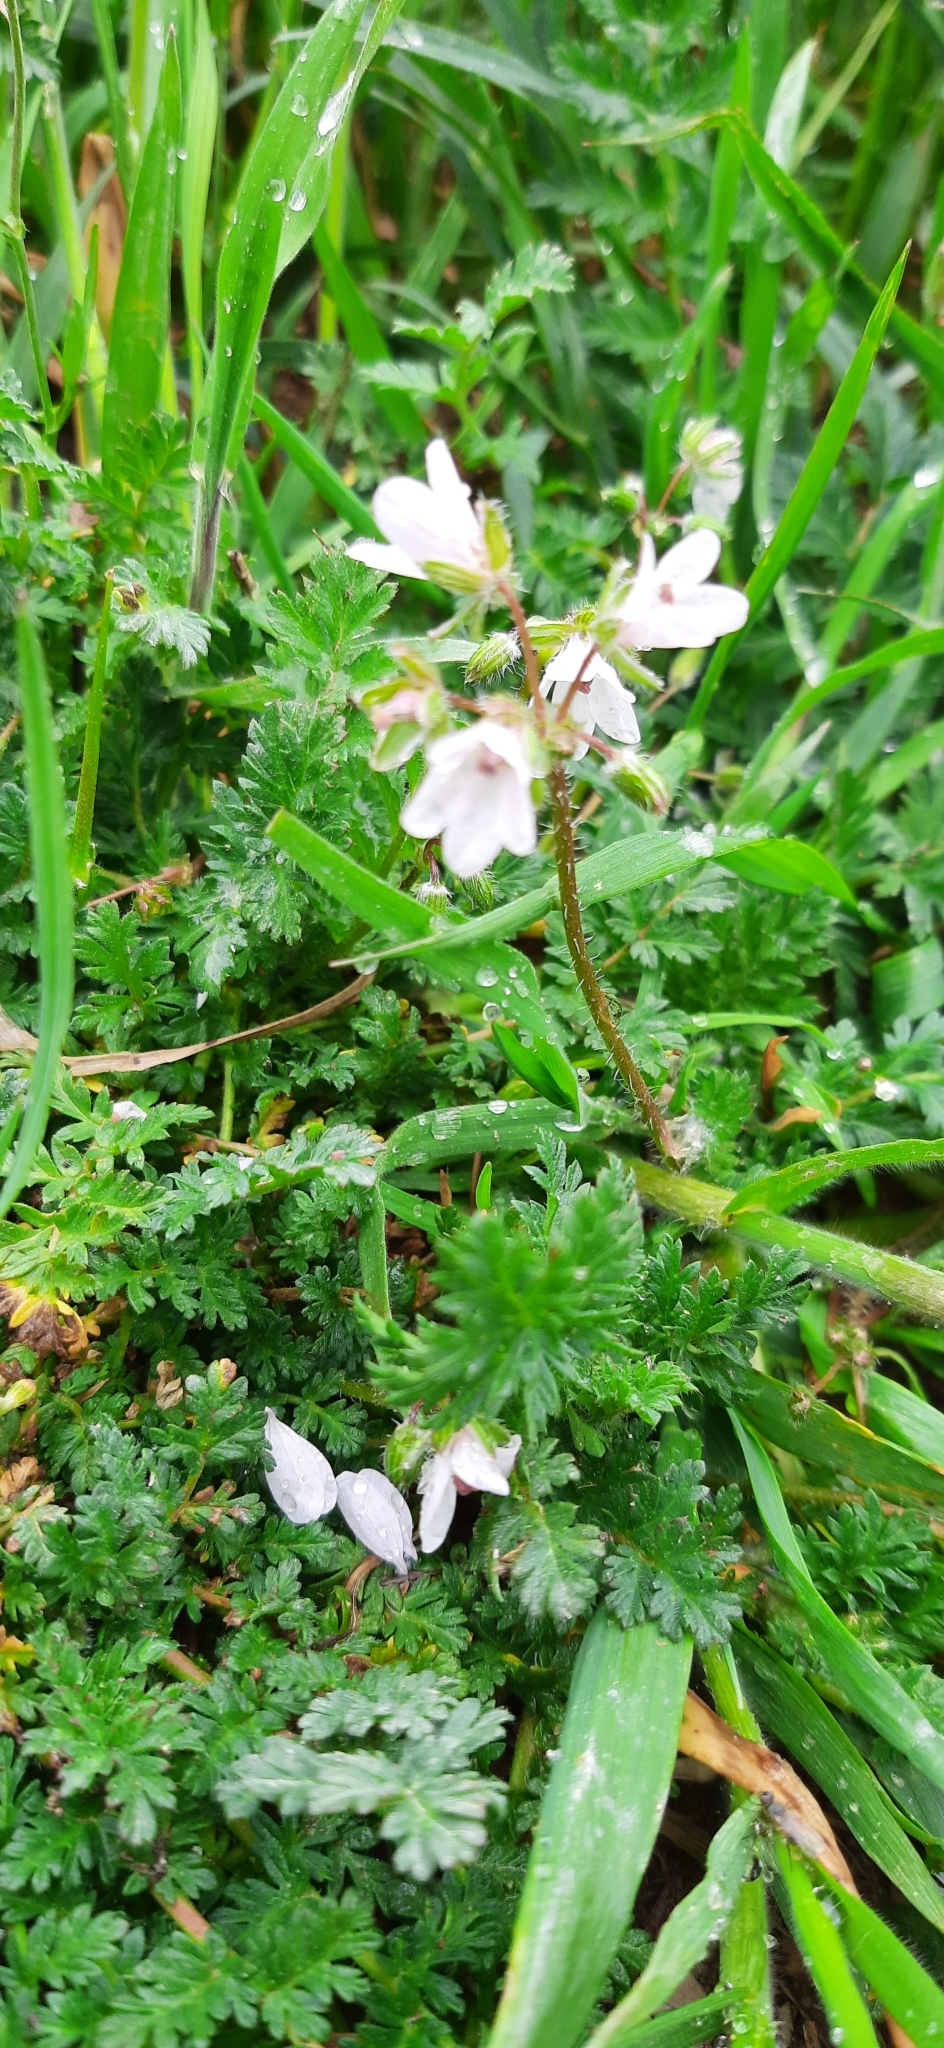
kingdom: Plantae
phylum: Tracheophyta
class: Magnoliopsida
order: Geraniales
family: Geraniaceae
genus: Erodium
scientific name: Erodium cicutarium
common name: Common stork's-bill
